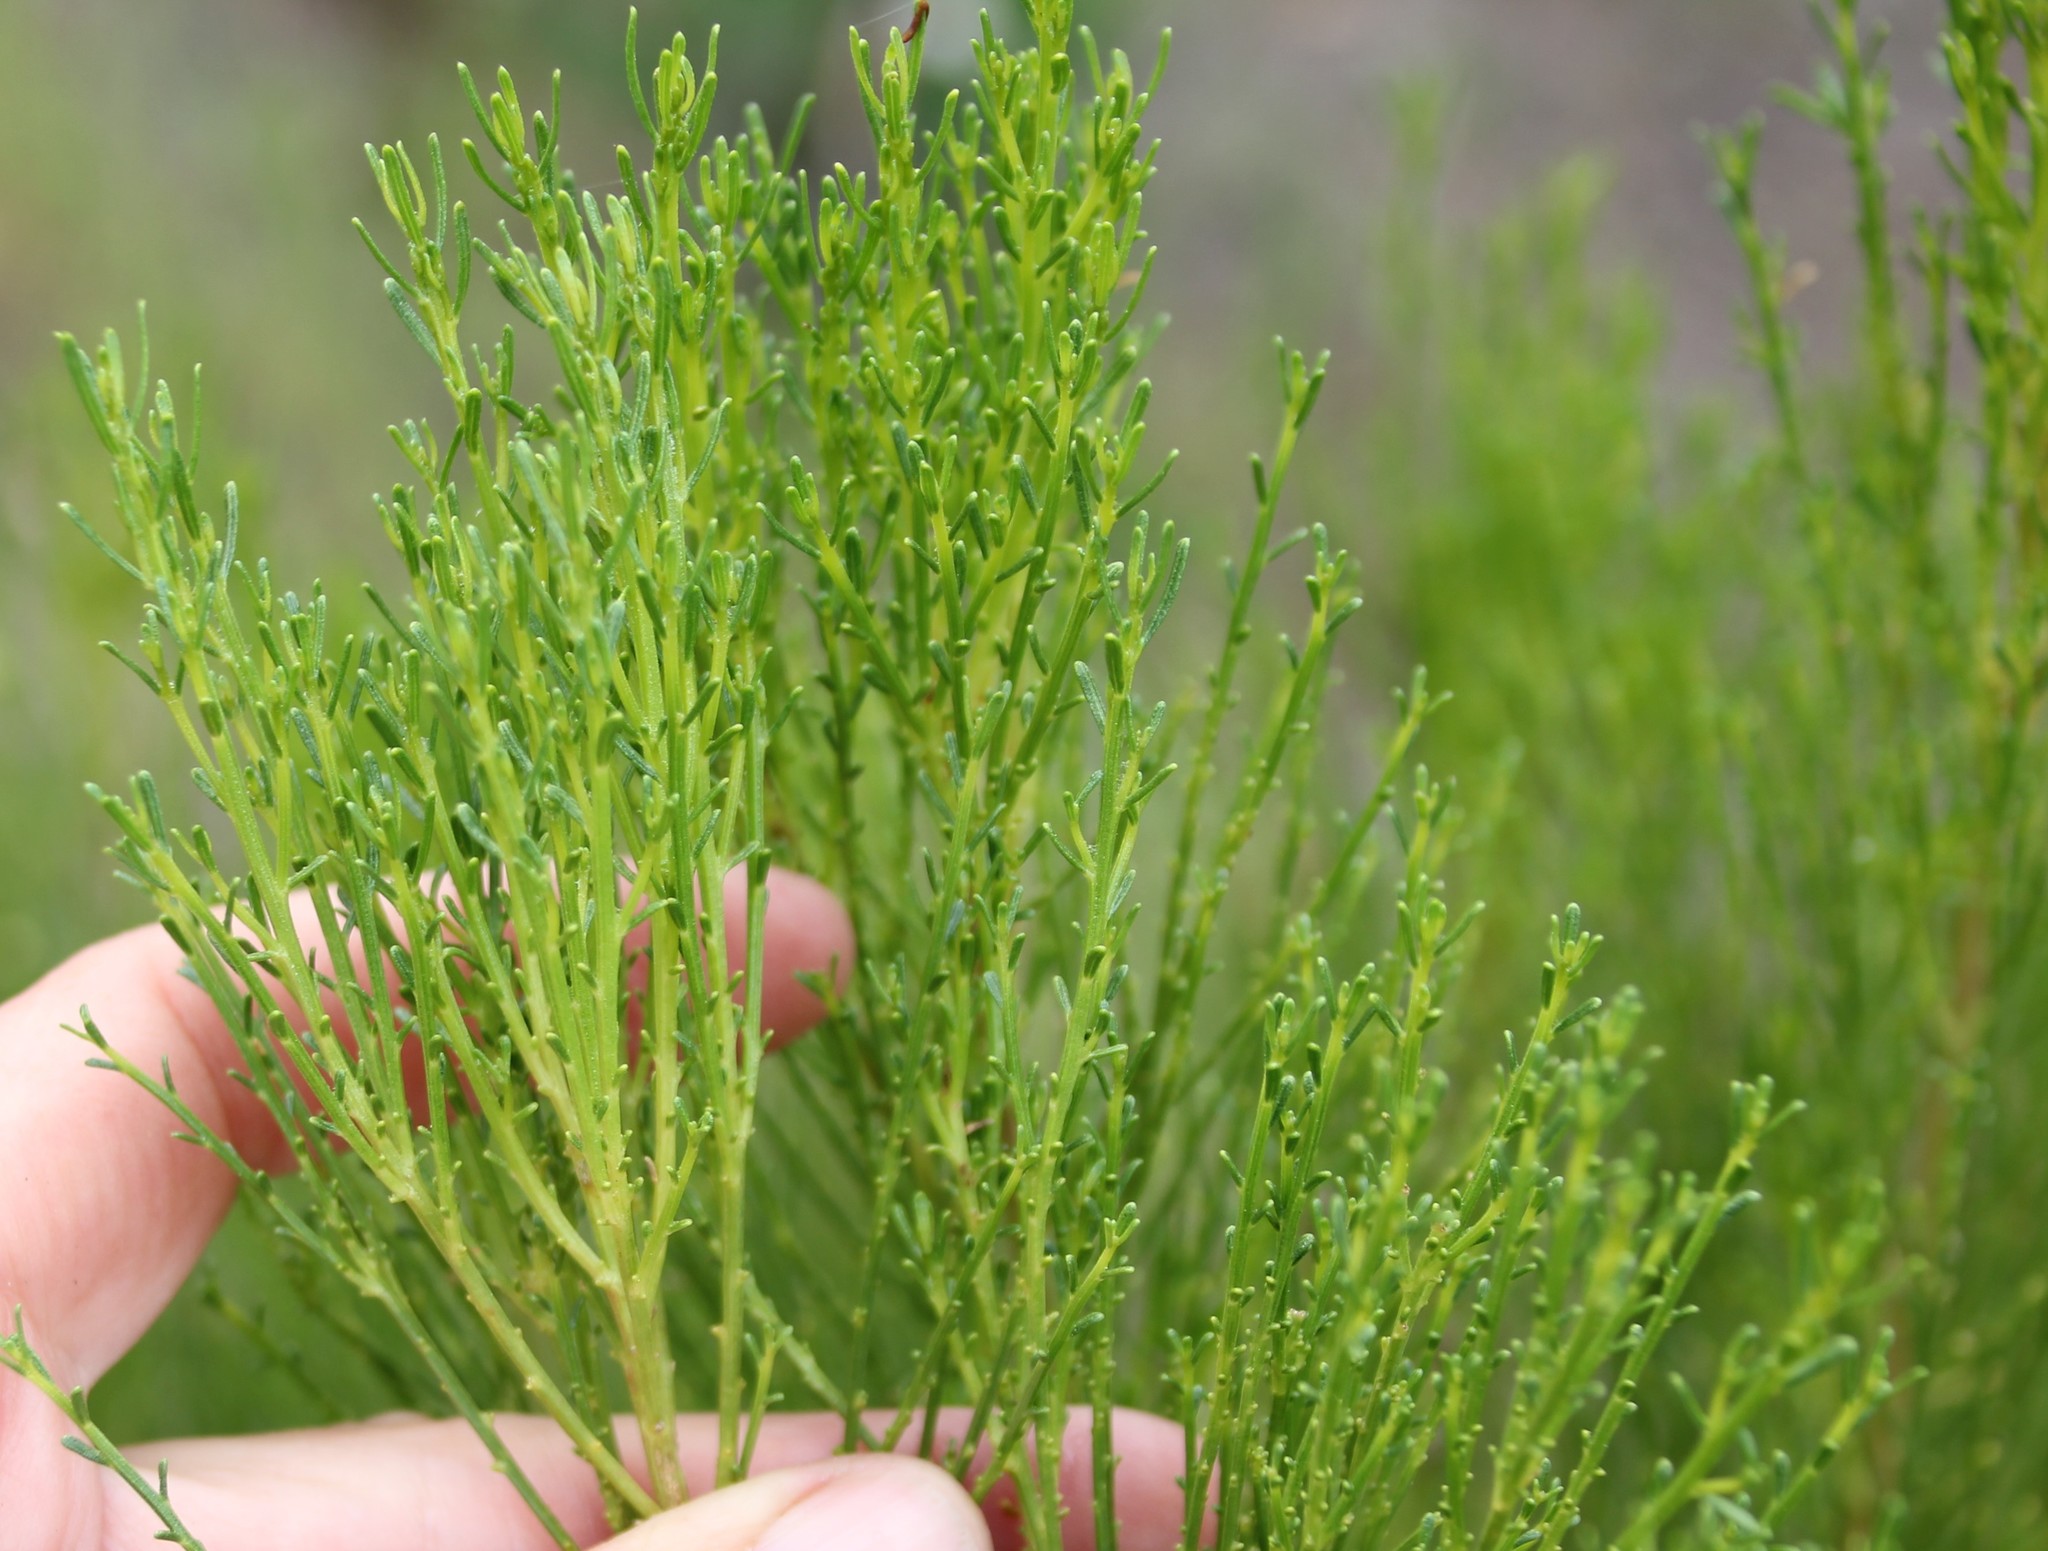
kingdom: Plantae
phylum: Tracheophyta
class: Magnoliopsida
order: Asterales
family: Asteraceae
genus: Baccharis
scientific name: Baccharis sarothroides
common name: Desert-broom
